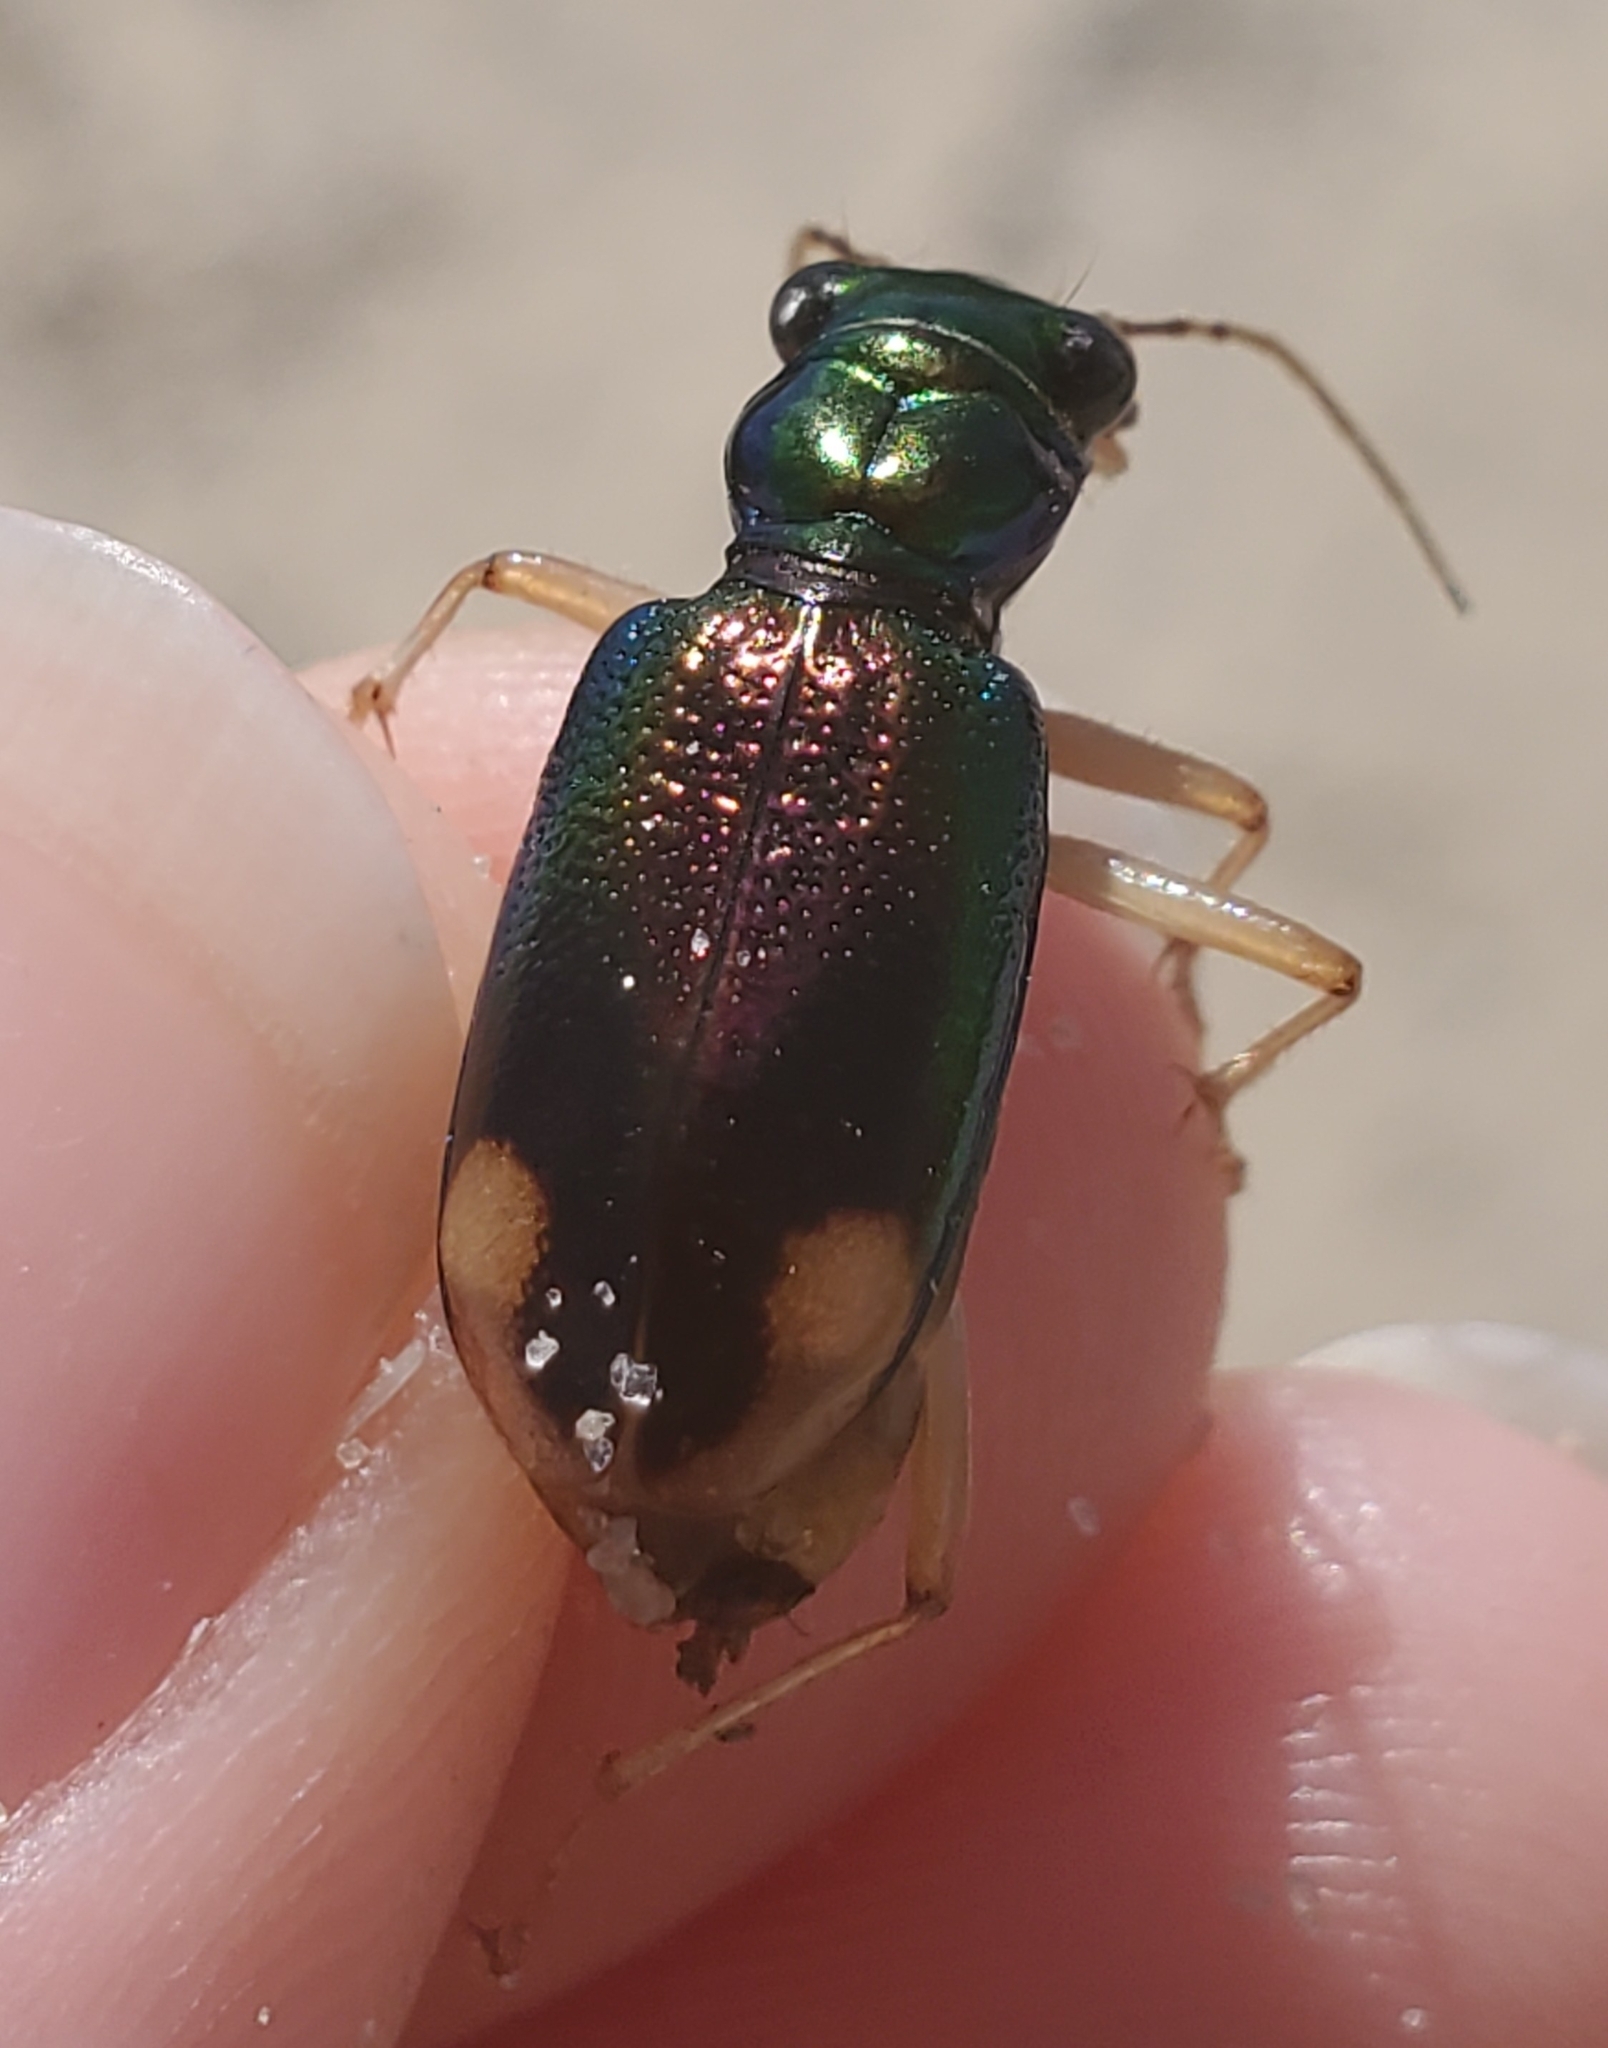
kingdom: Animalia
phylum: Arthropoda
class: Insecta
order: Coleoptera
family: Carabidae
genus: Tetracha
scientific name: Tetracha carolina
